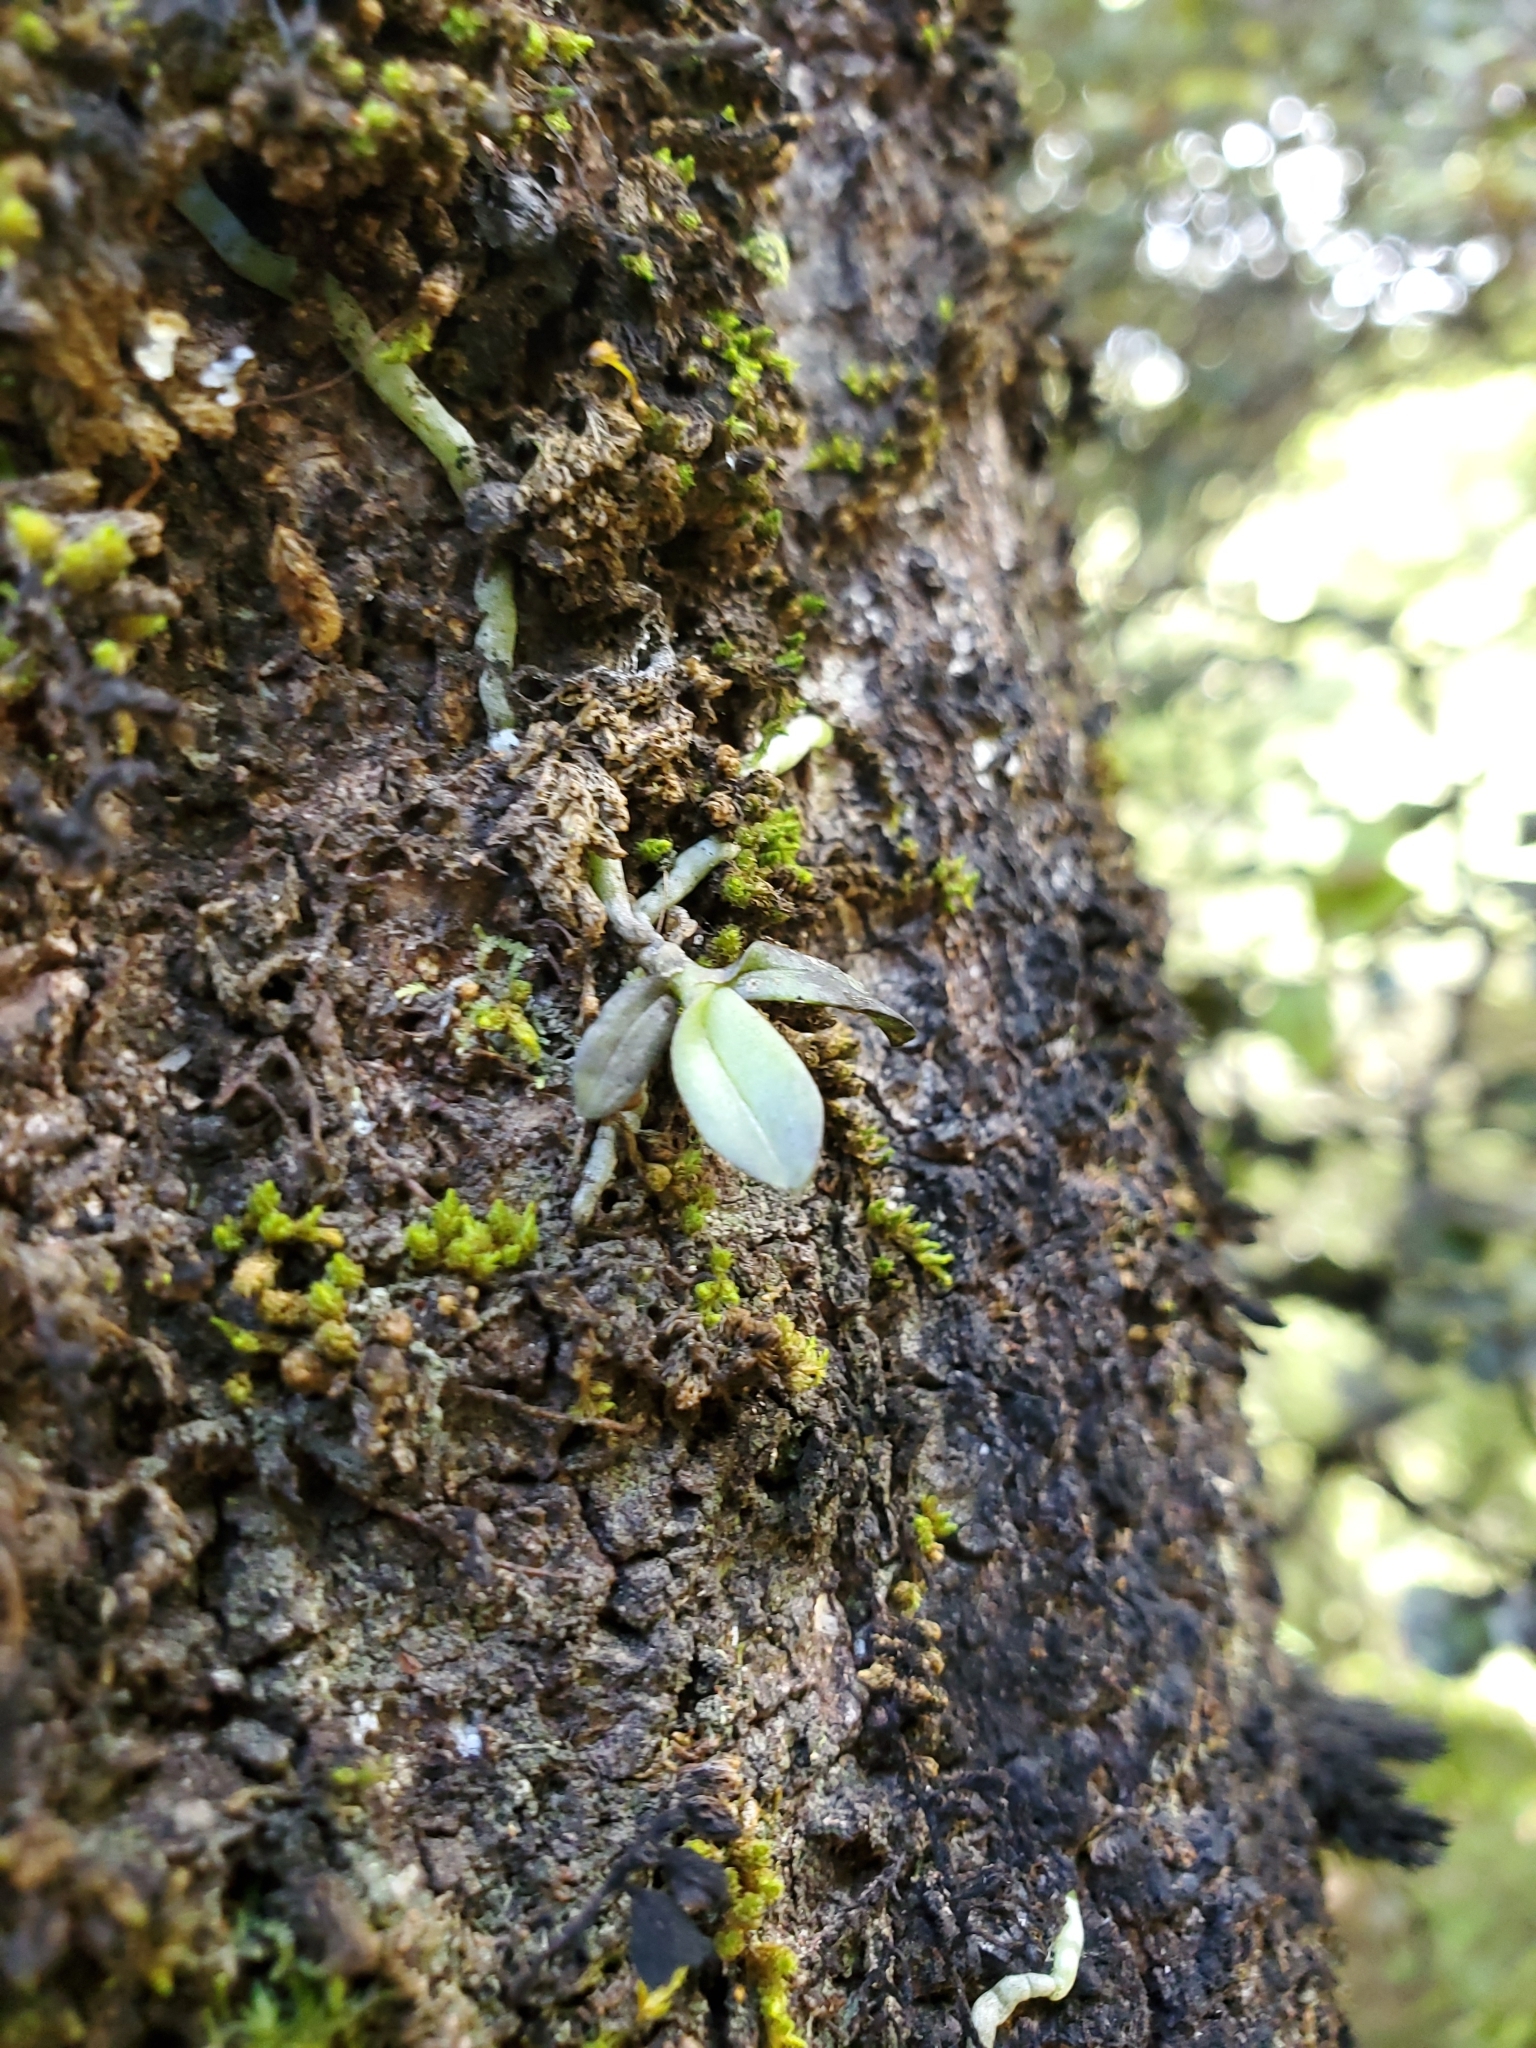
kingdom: Plantae
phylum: Tracheophyta
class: Liliopsida
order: Asparagales
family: Orchidaceae
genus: Drymoanthus
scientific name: Drymoanthus adversus
